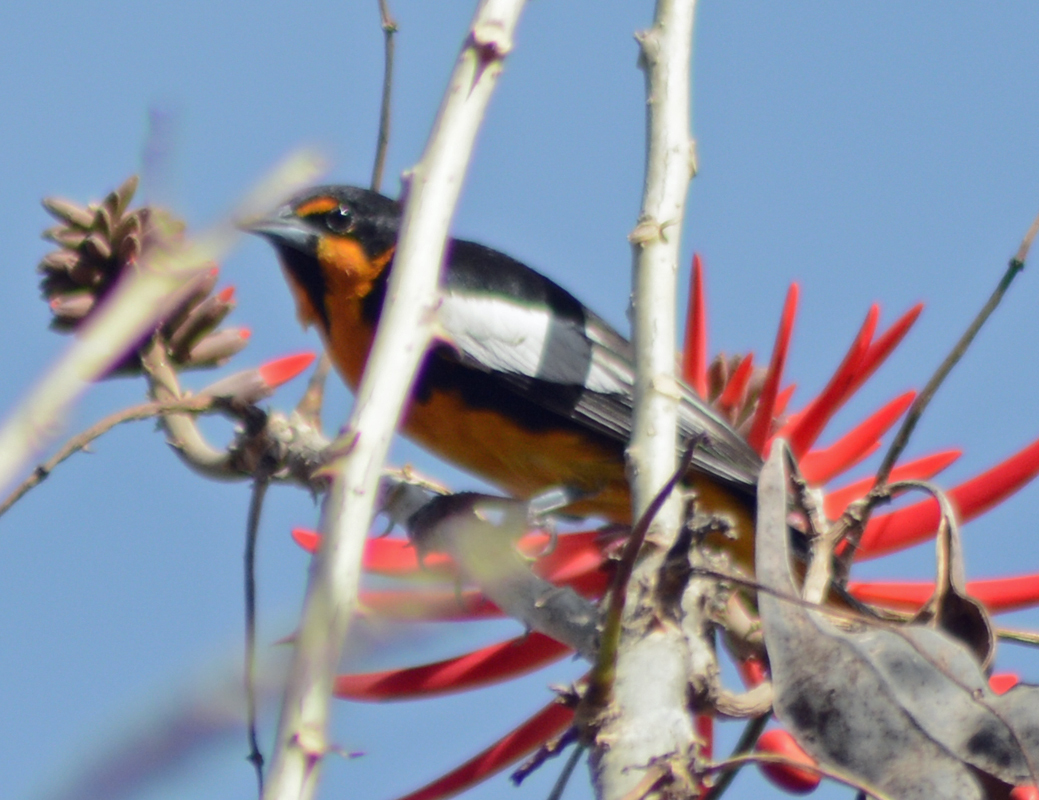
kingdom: Animalia
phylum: Chordata
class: Aves
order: Passeriformes
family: Icteridae
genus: Icterus
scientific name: Icterus abeillei
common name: Black-backed oriole
